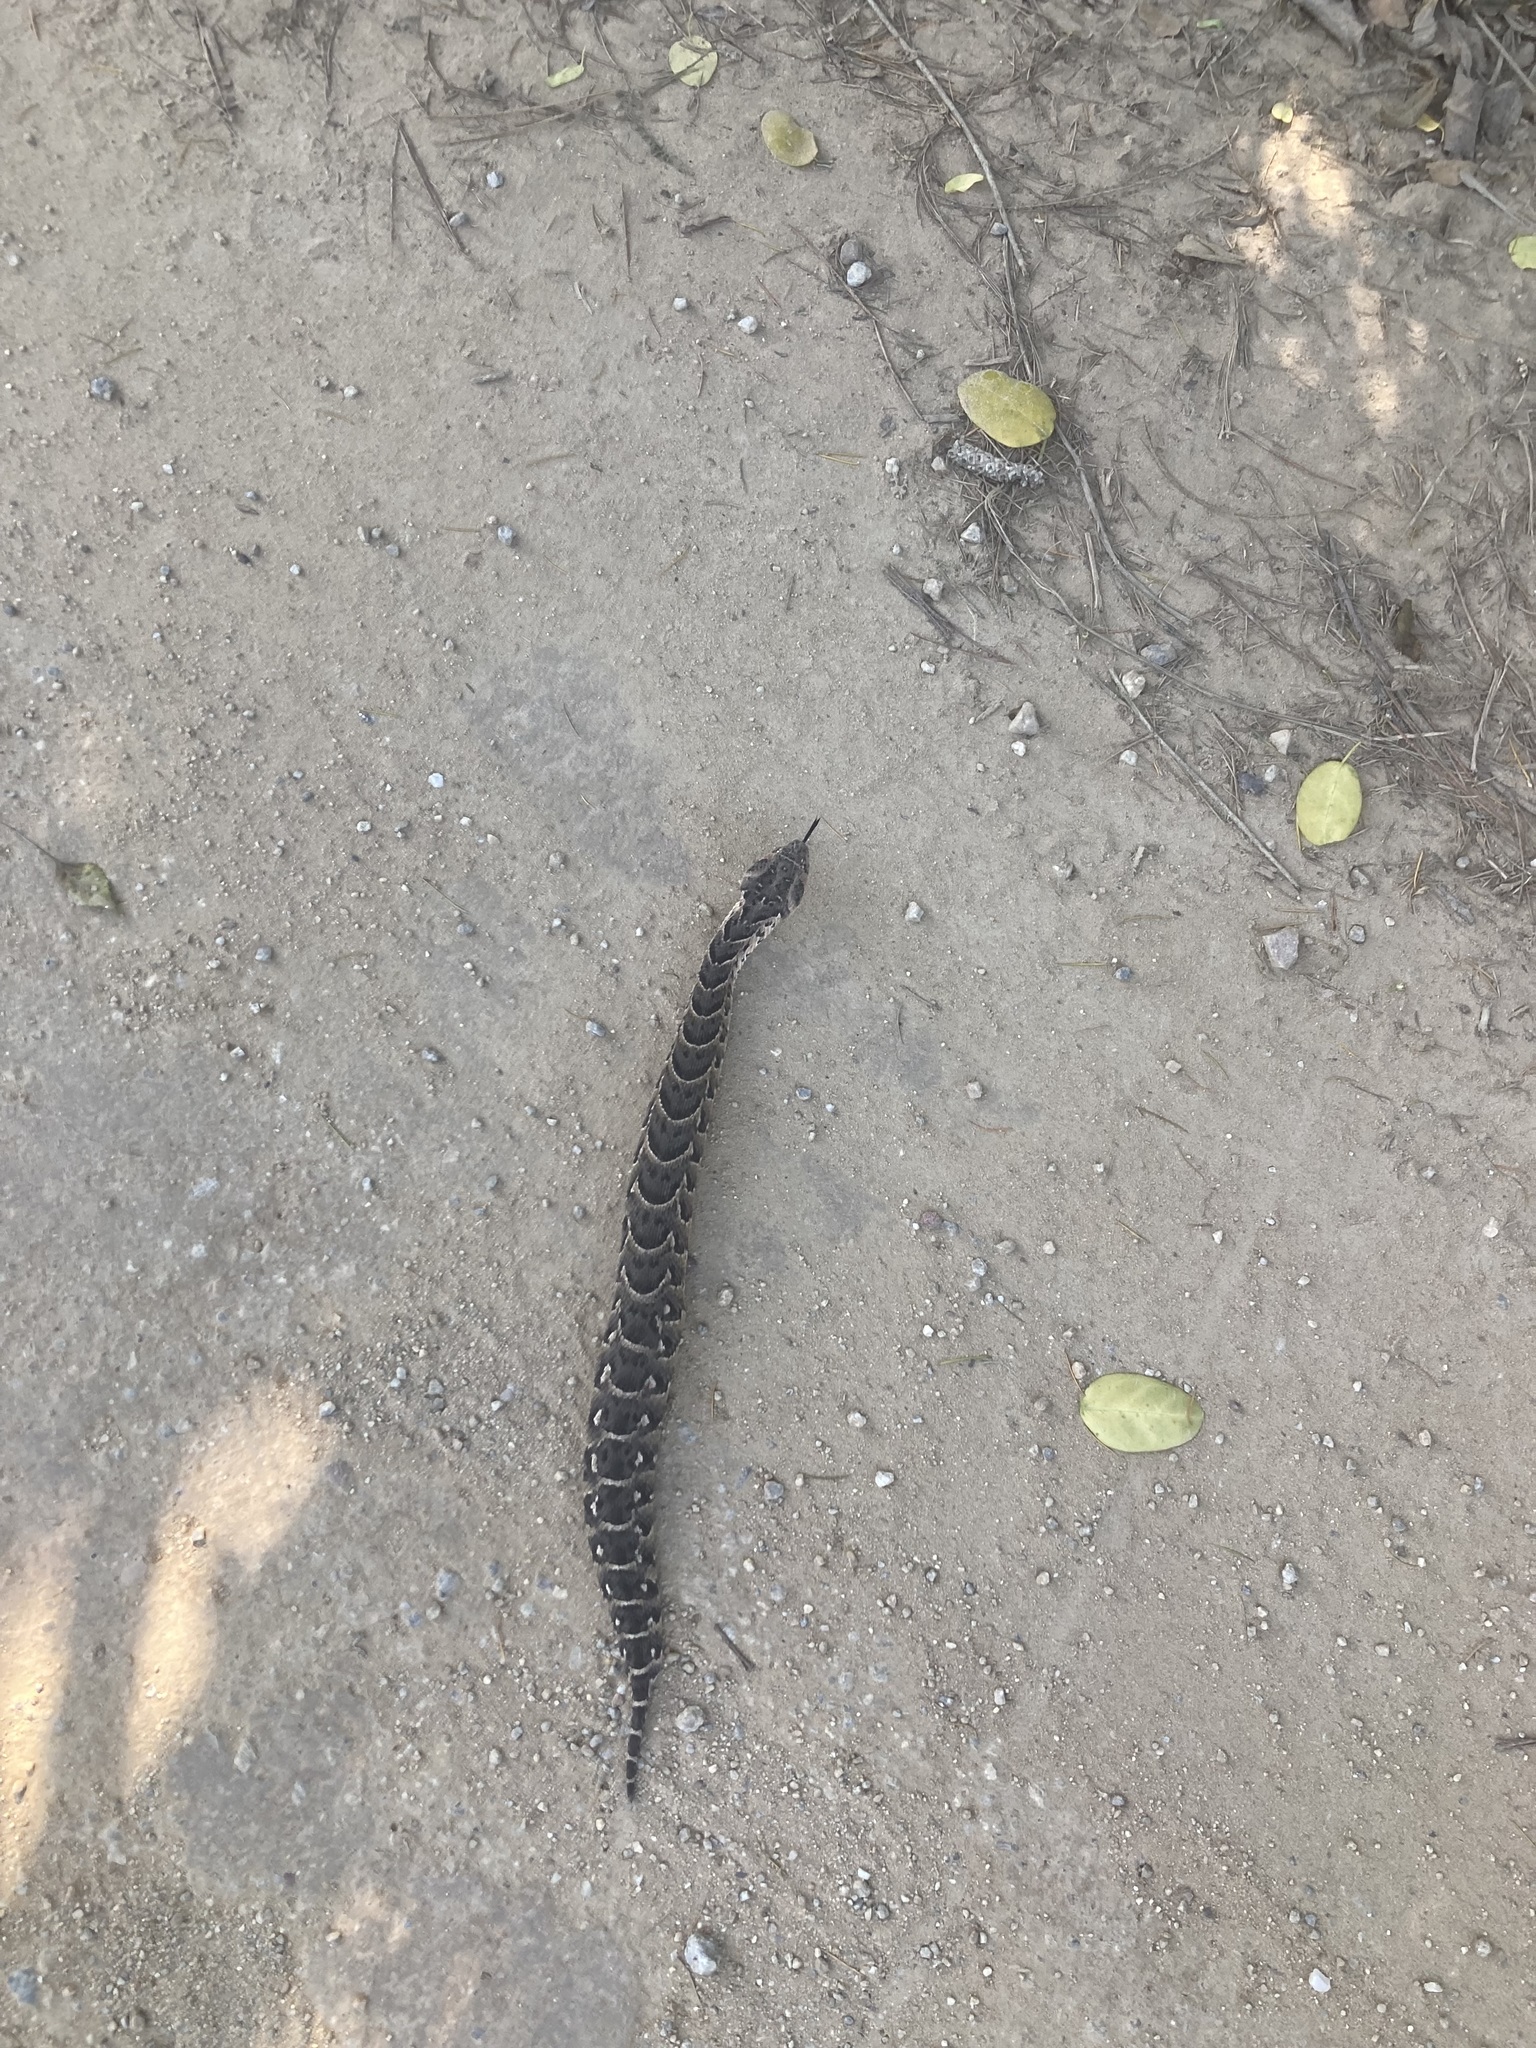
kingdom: Animalia
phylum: Chordata
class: Squamata
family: Viperidae
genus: Bitis
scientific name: Bitis arietans
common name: Puff adder
